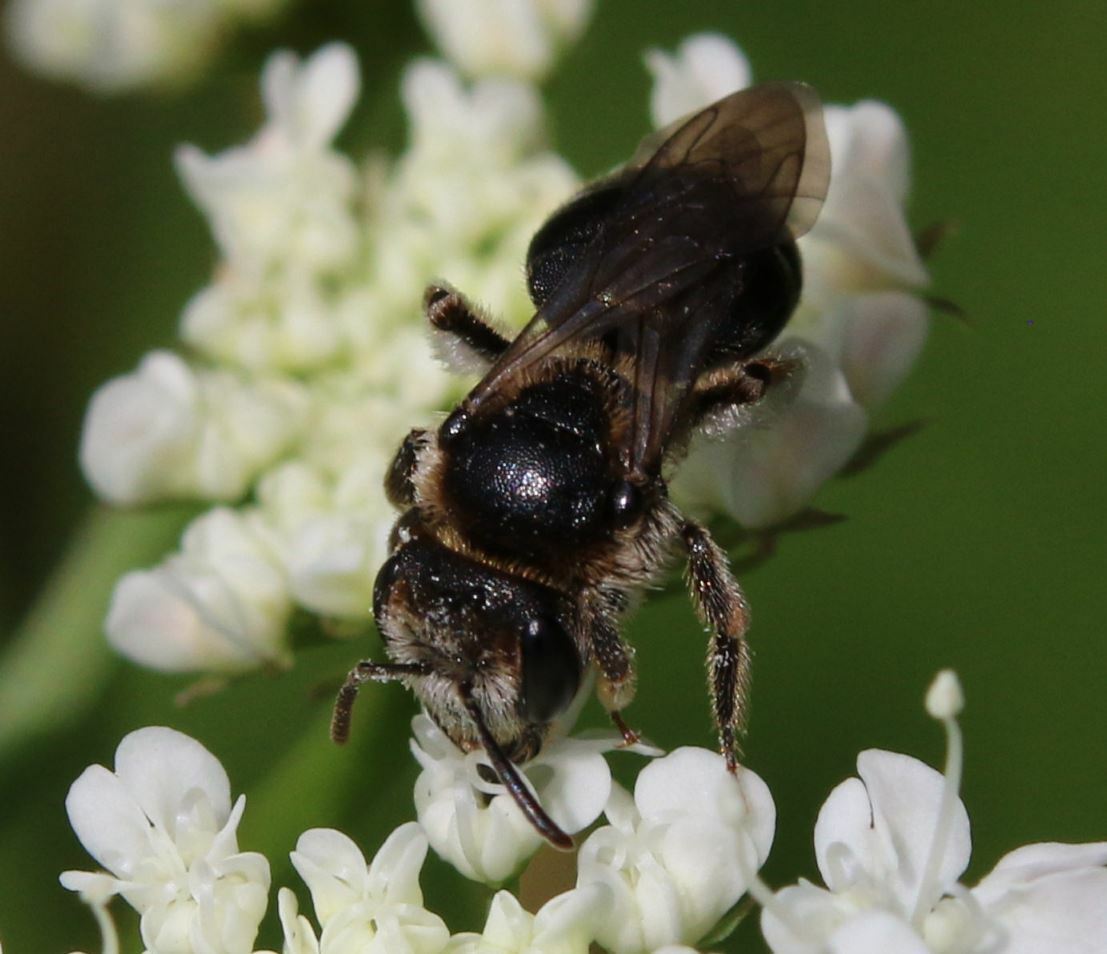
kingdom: Animalia
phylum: Arthropoda
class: Insecta
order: Hymenoptera
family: Andrenidae
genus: Andrena
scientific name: Andrena colletiformis
